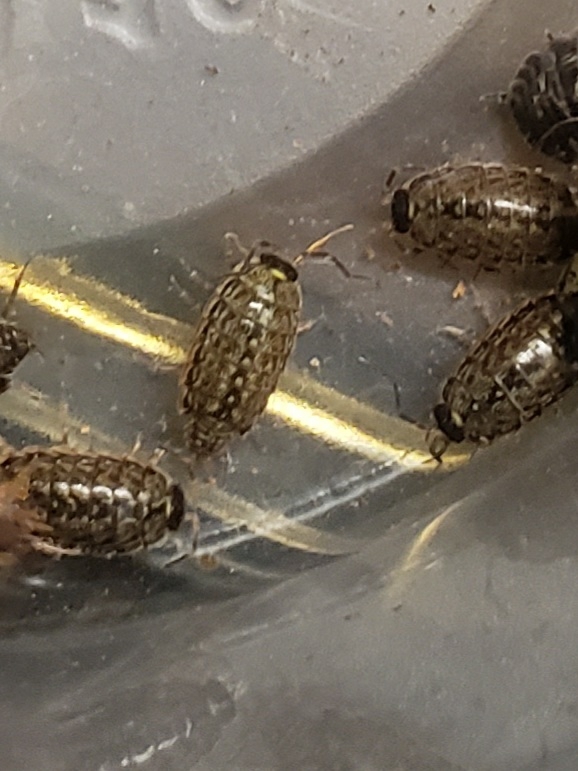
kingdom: Animalia
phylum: Arthropoda
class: Malacostraca
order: Isopoda
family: Philosciidae
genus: Philoscia
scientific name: Philoscia muscorum
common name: Common striped woodlouse
